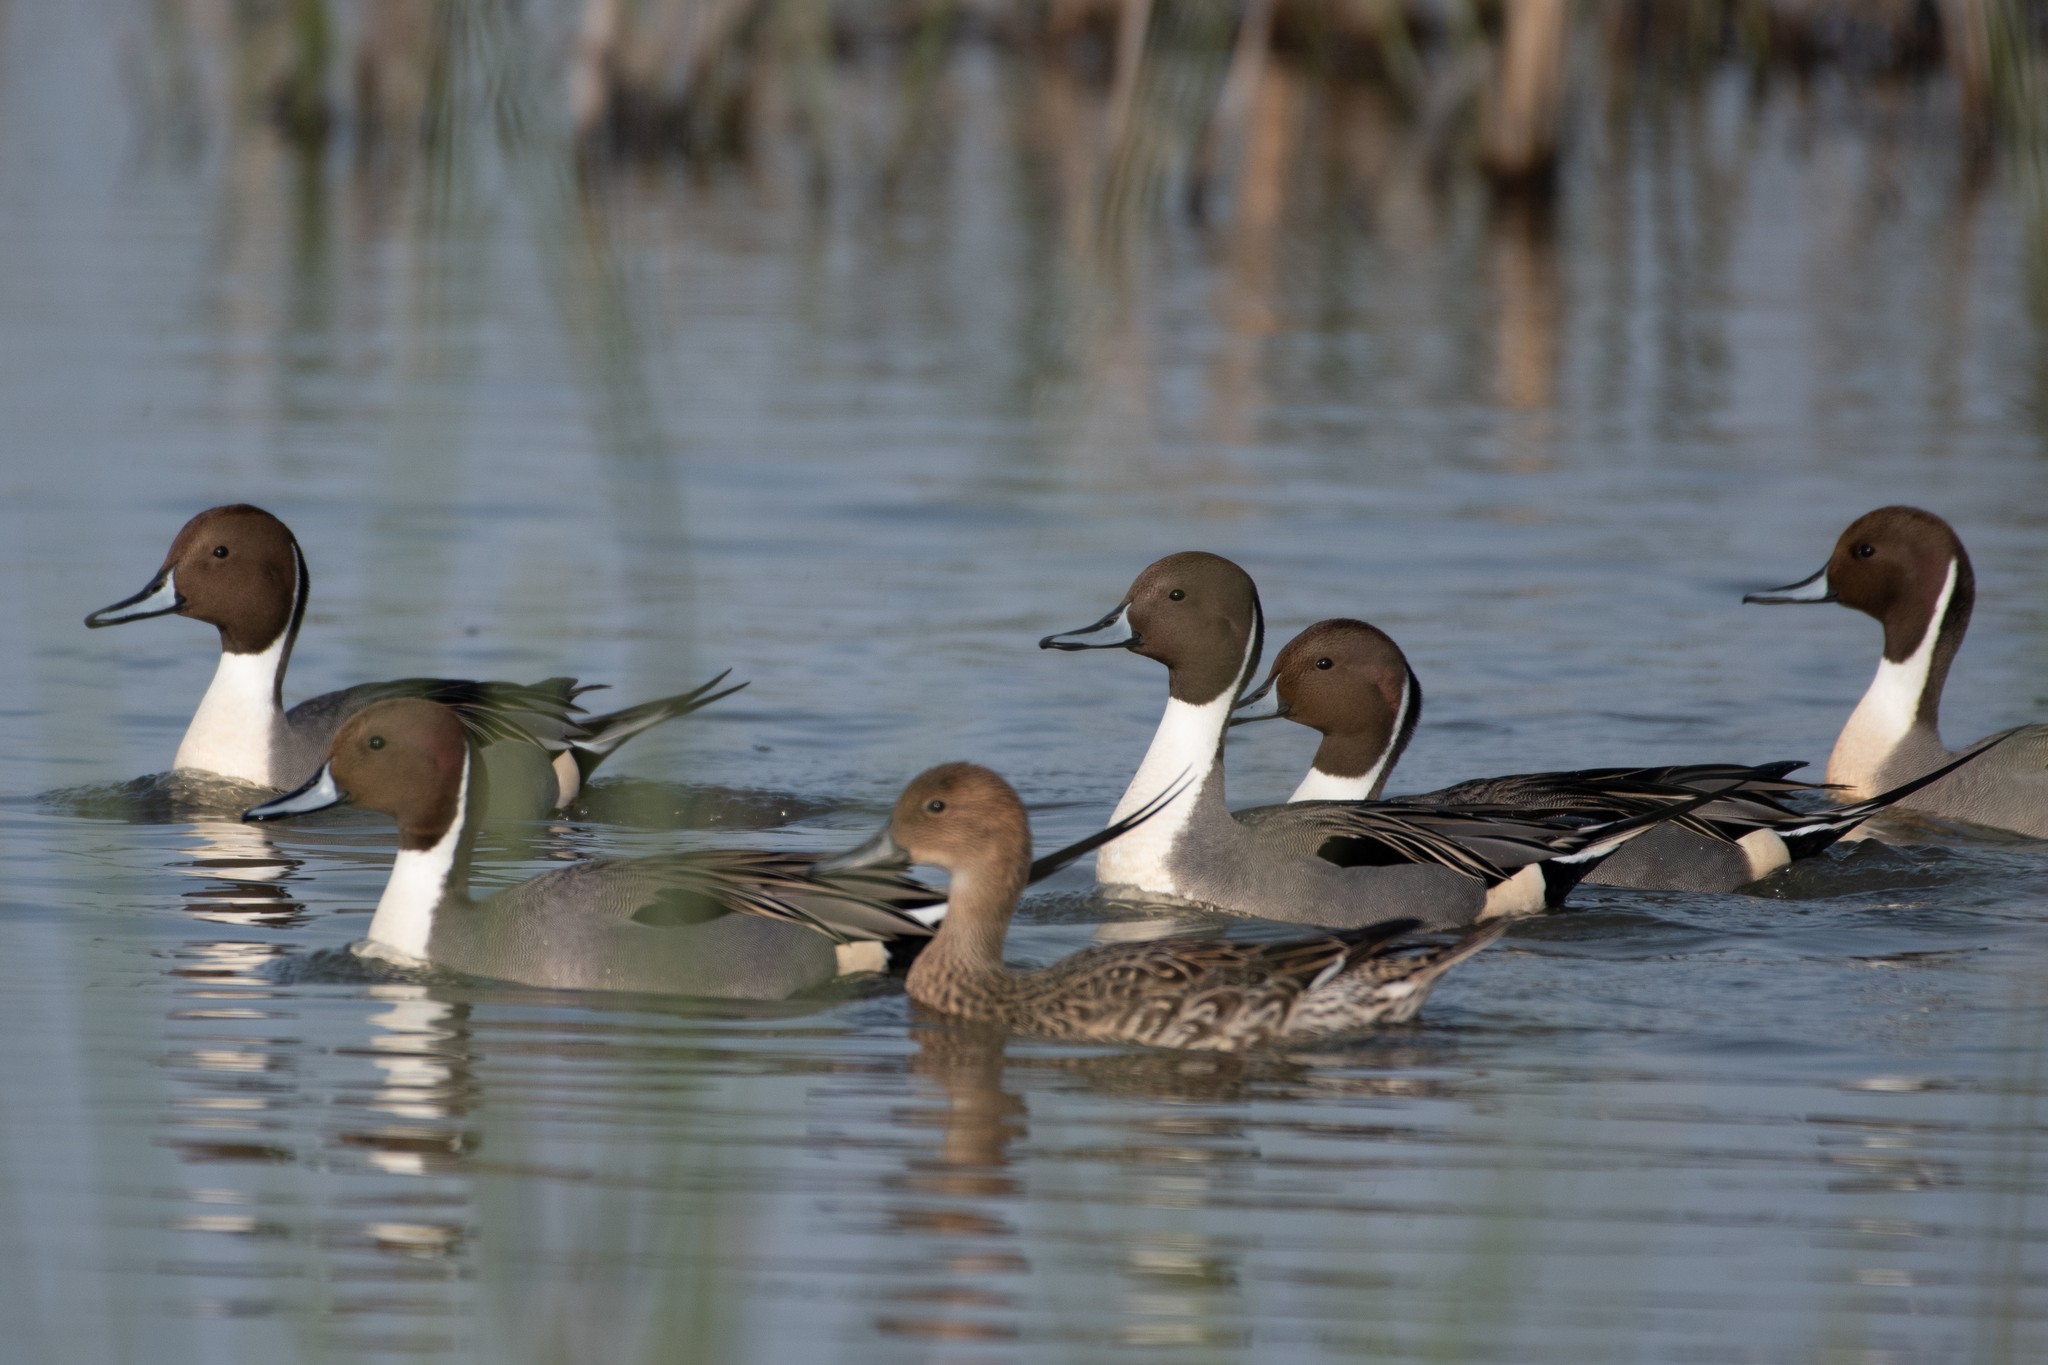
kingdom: Animalia
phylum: Chordata
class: Aves
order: Anseriformes
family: Anatidae
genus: Anas
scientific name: Anas acuta
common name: Northern pintail
